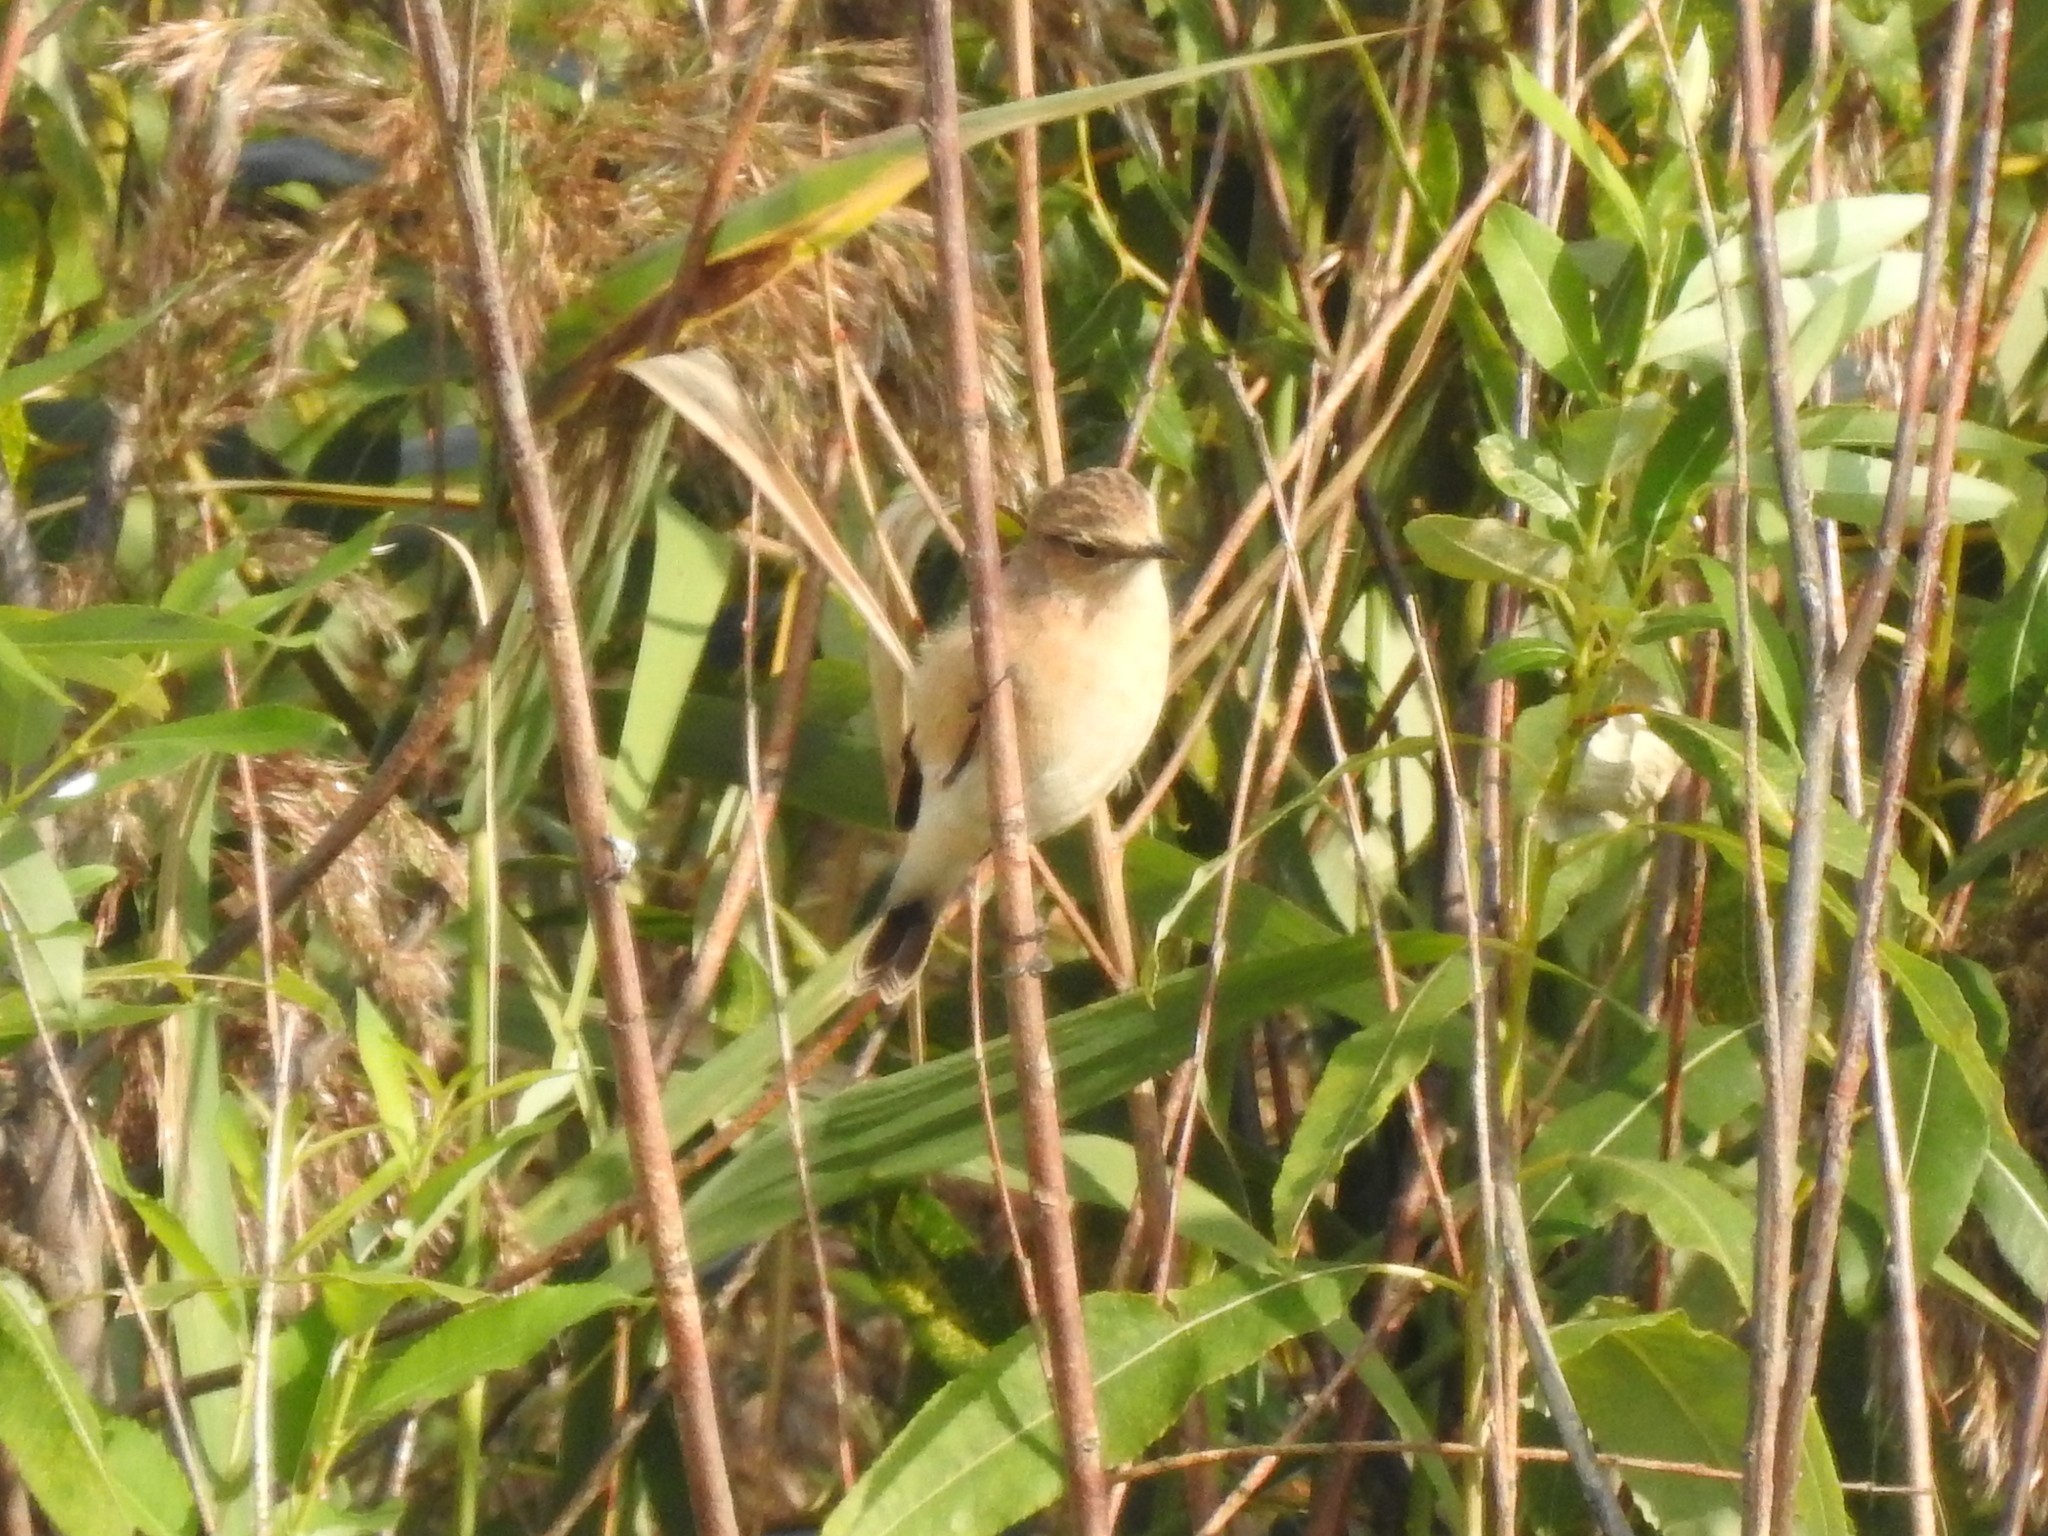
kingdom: Animalia
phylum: Chordata
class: Aves
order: Passeriformes
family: Muscicapidae
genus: Saxicola
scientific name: Saxicola maurus
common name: Siberian stonechat
